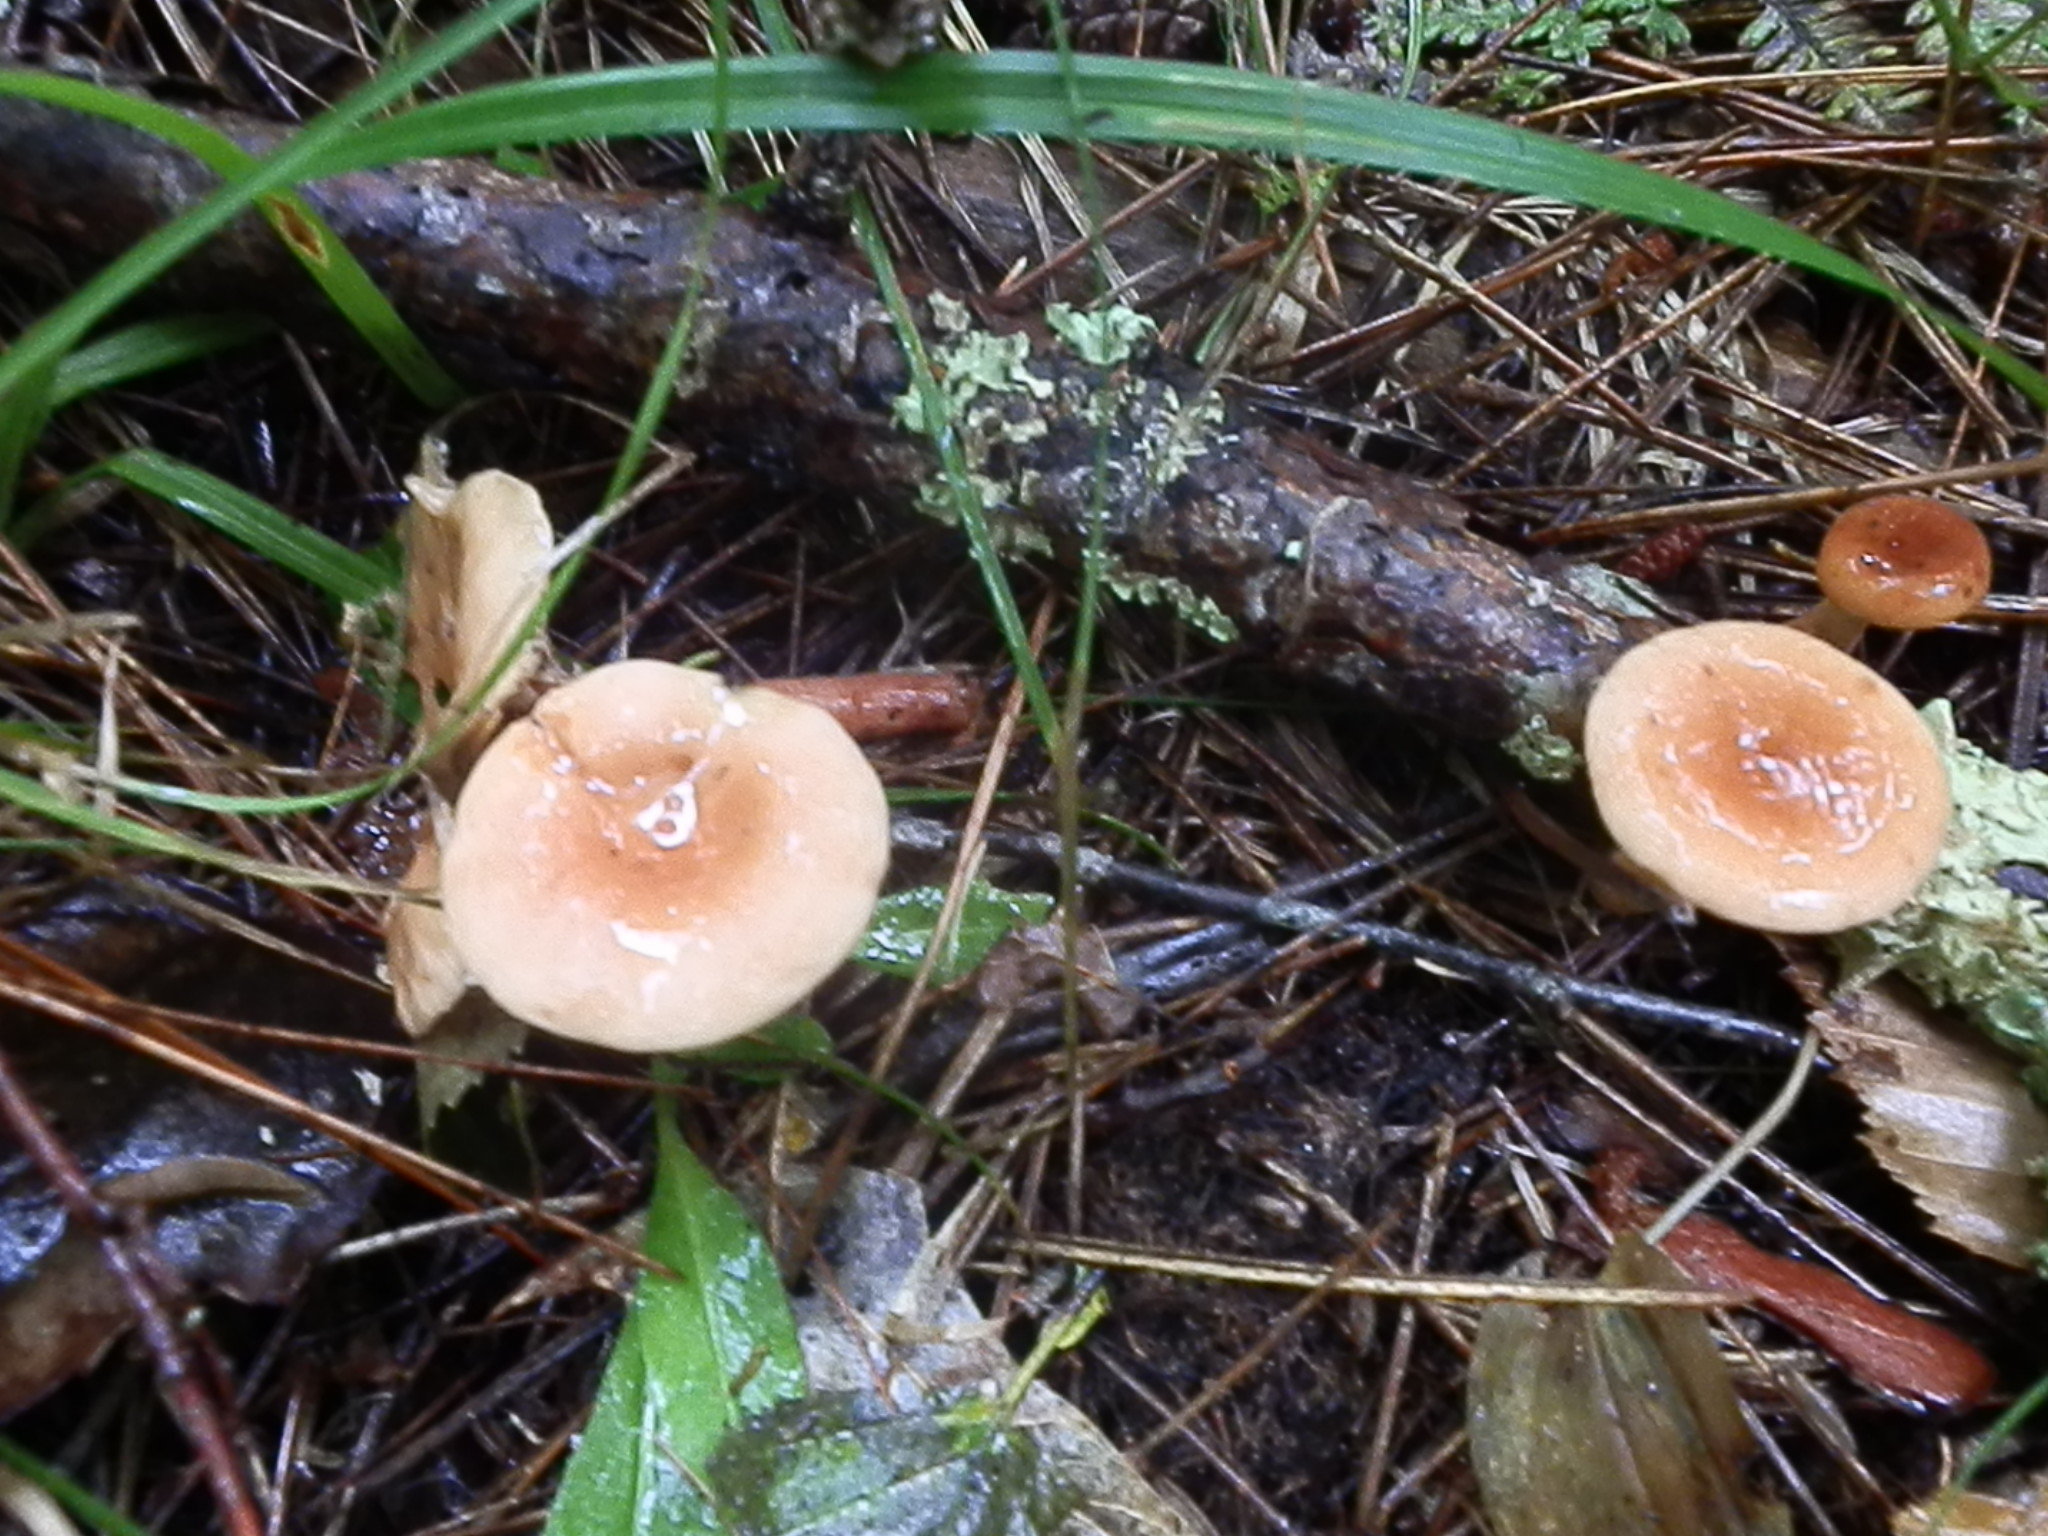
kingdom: Fungi
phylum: Basidiomycota
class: Agaricomycetes
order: Russulales
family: Russulaceae
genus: Lactarius
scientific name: Lactarius camphoratus
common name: Curry milkcap
